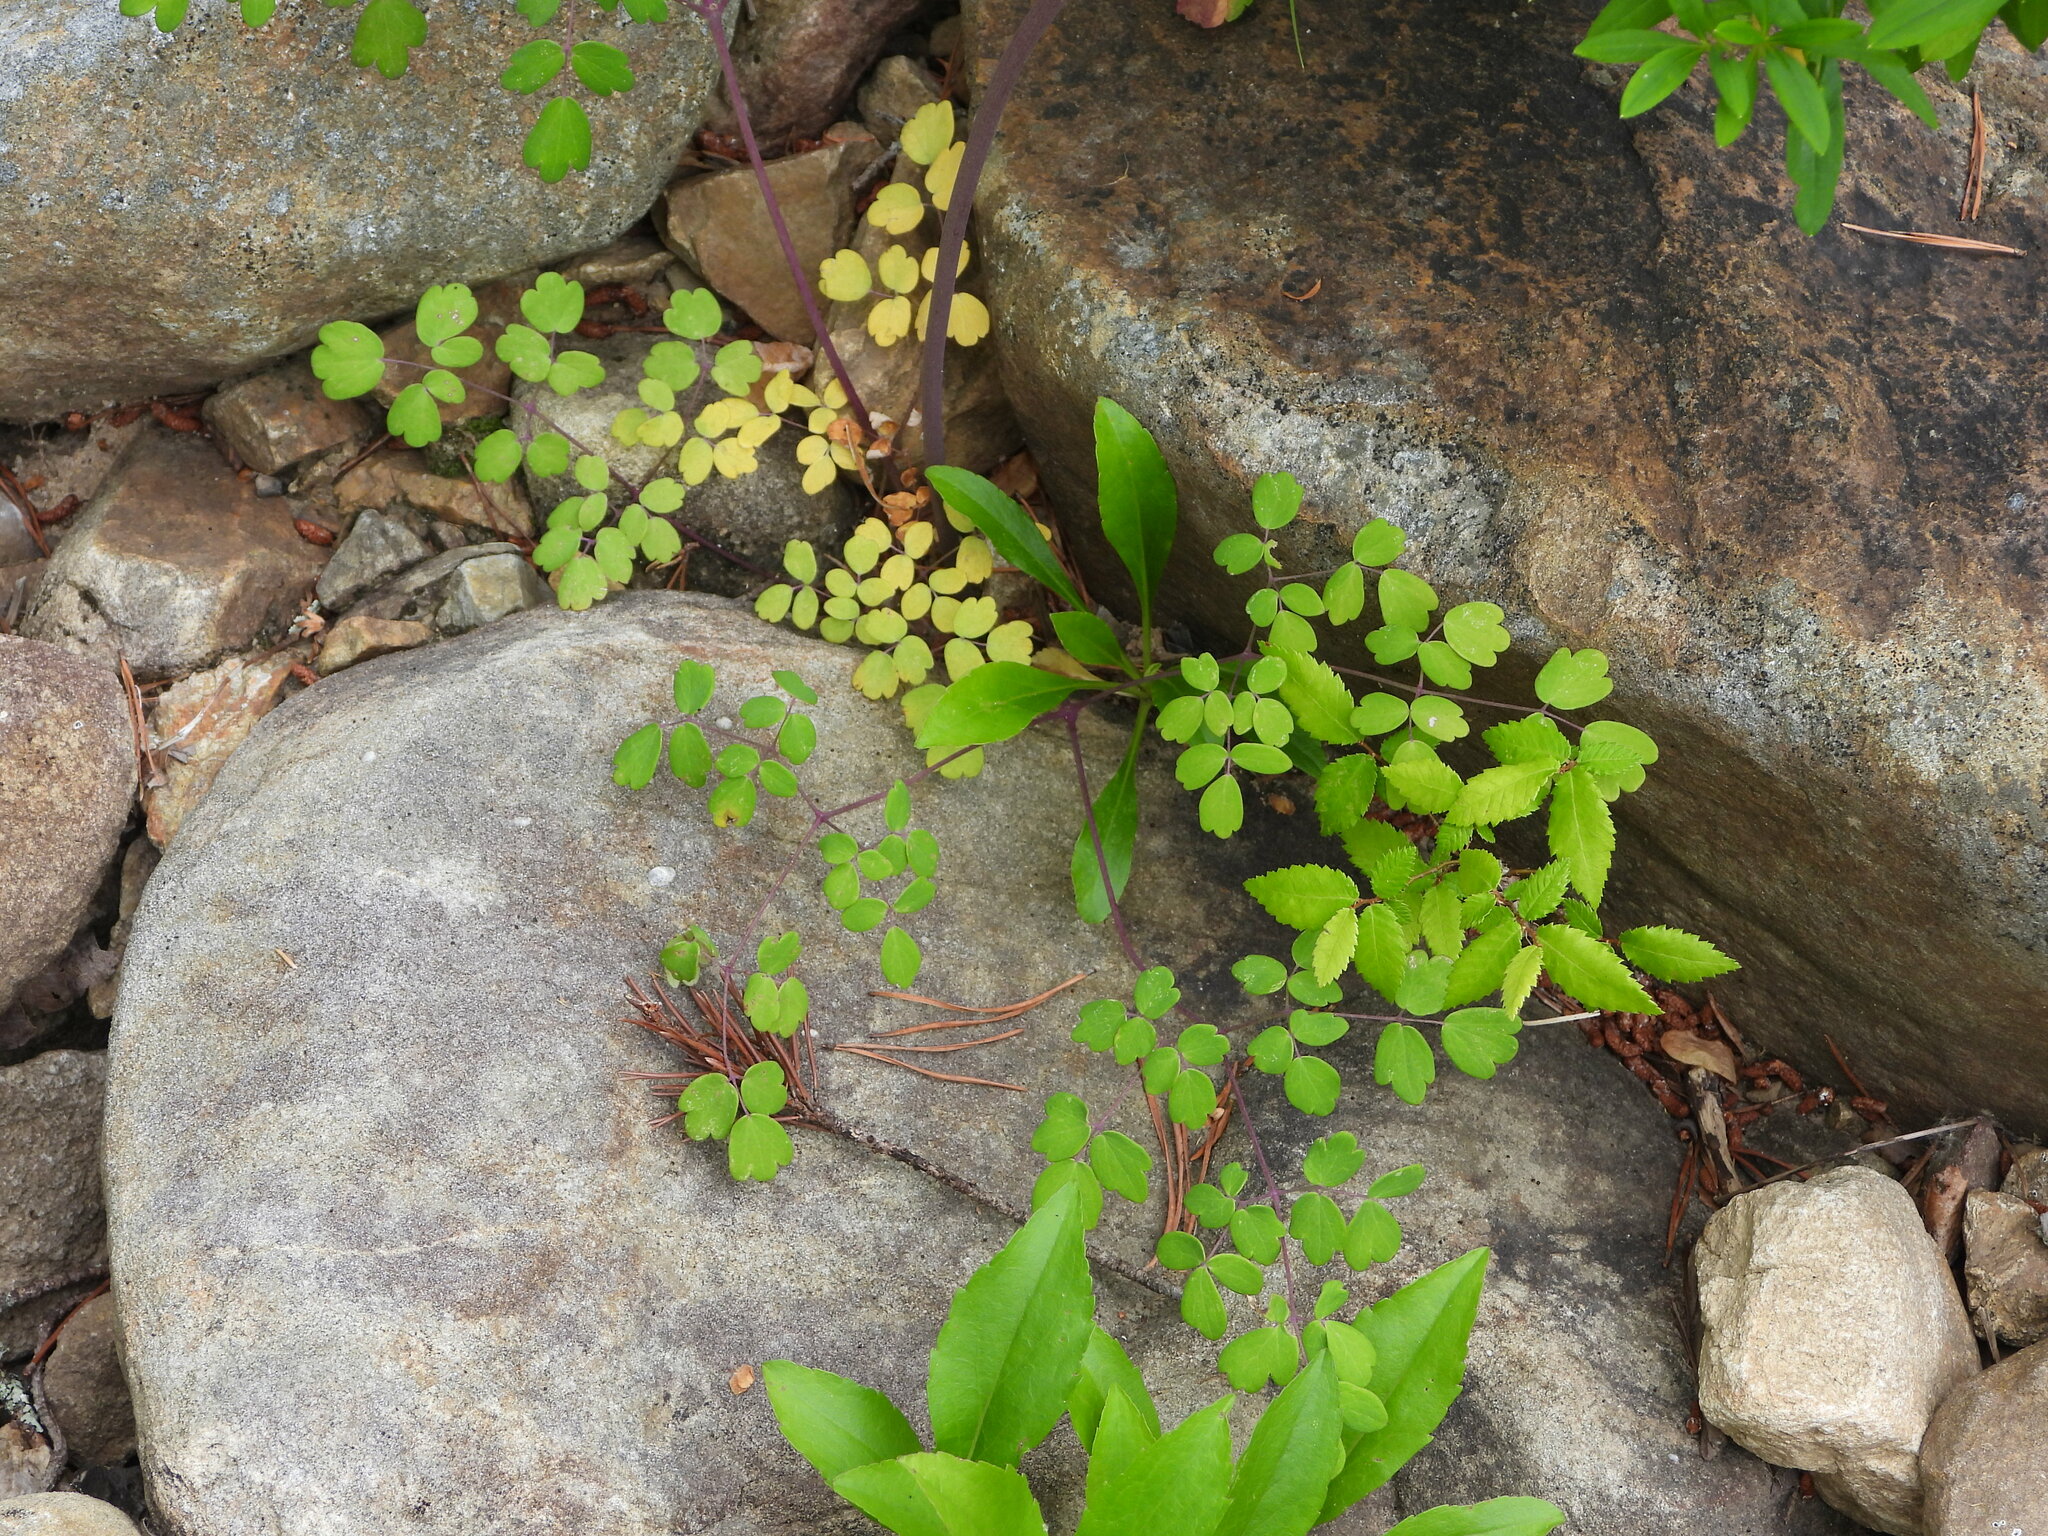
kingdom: Plantae
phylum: Tracheophyta
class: Magnoliopsida
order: Ranunculales
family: Ranunculaceae
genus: Thalictrum
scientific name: Thalictrum revolutum
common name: Waxy meadow-rue
